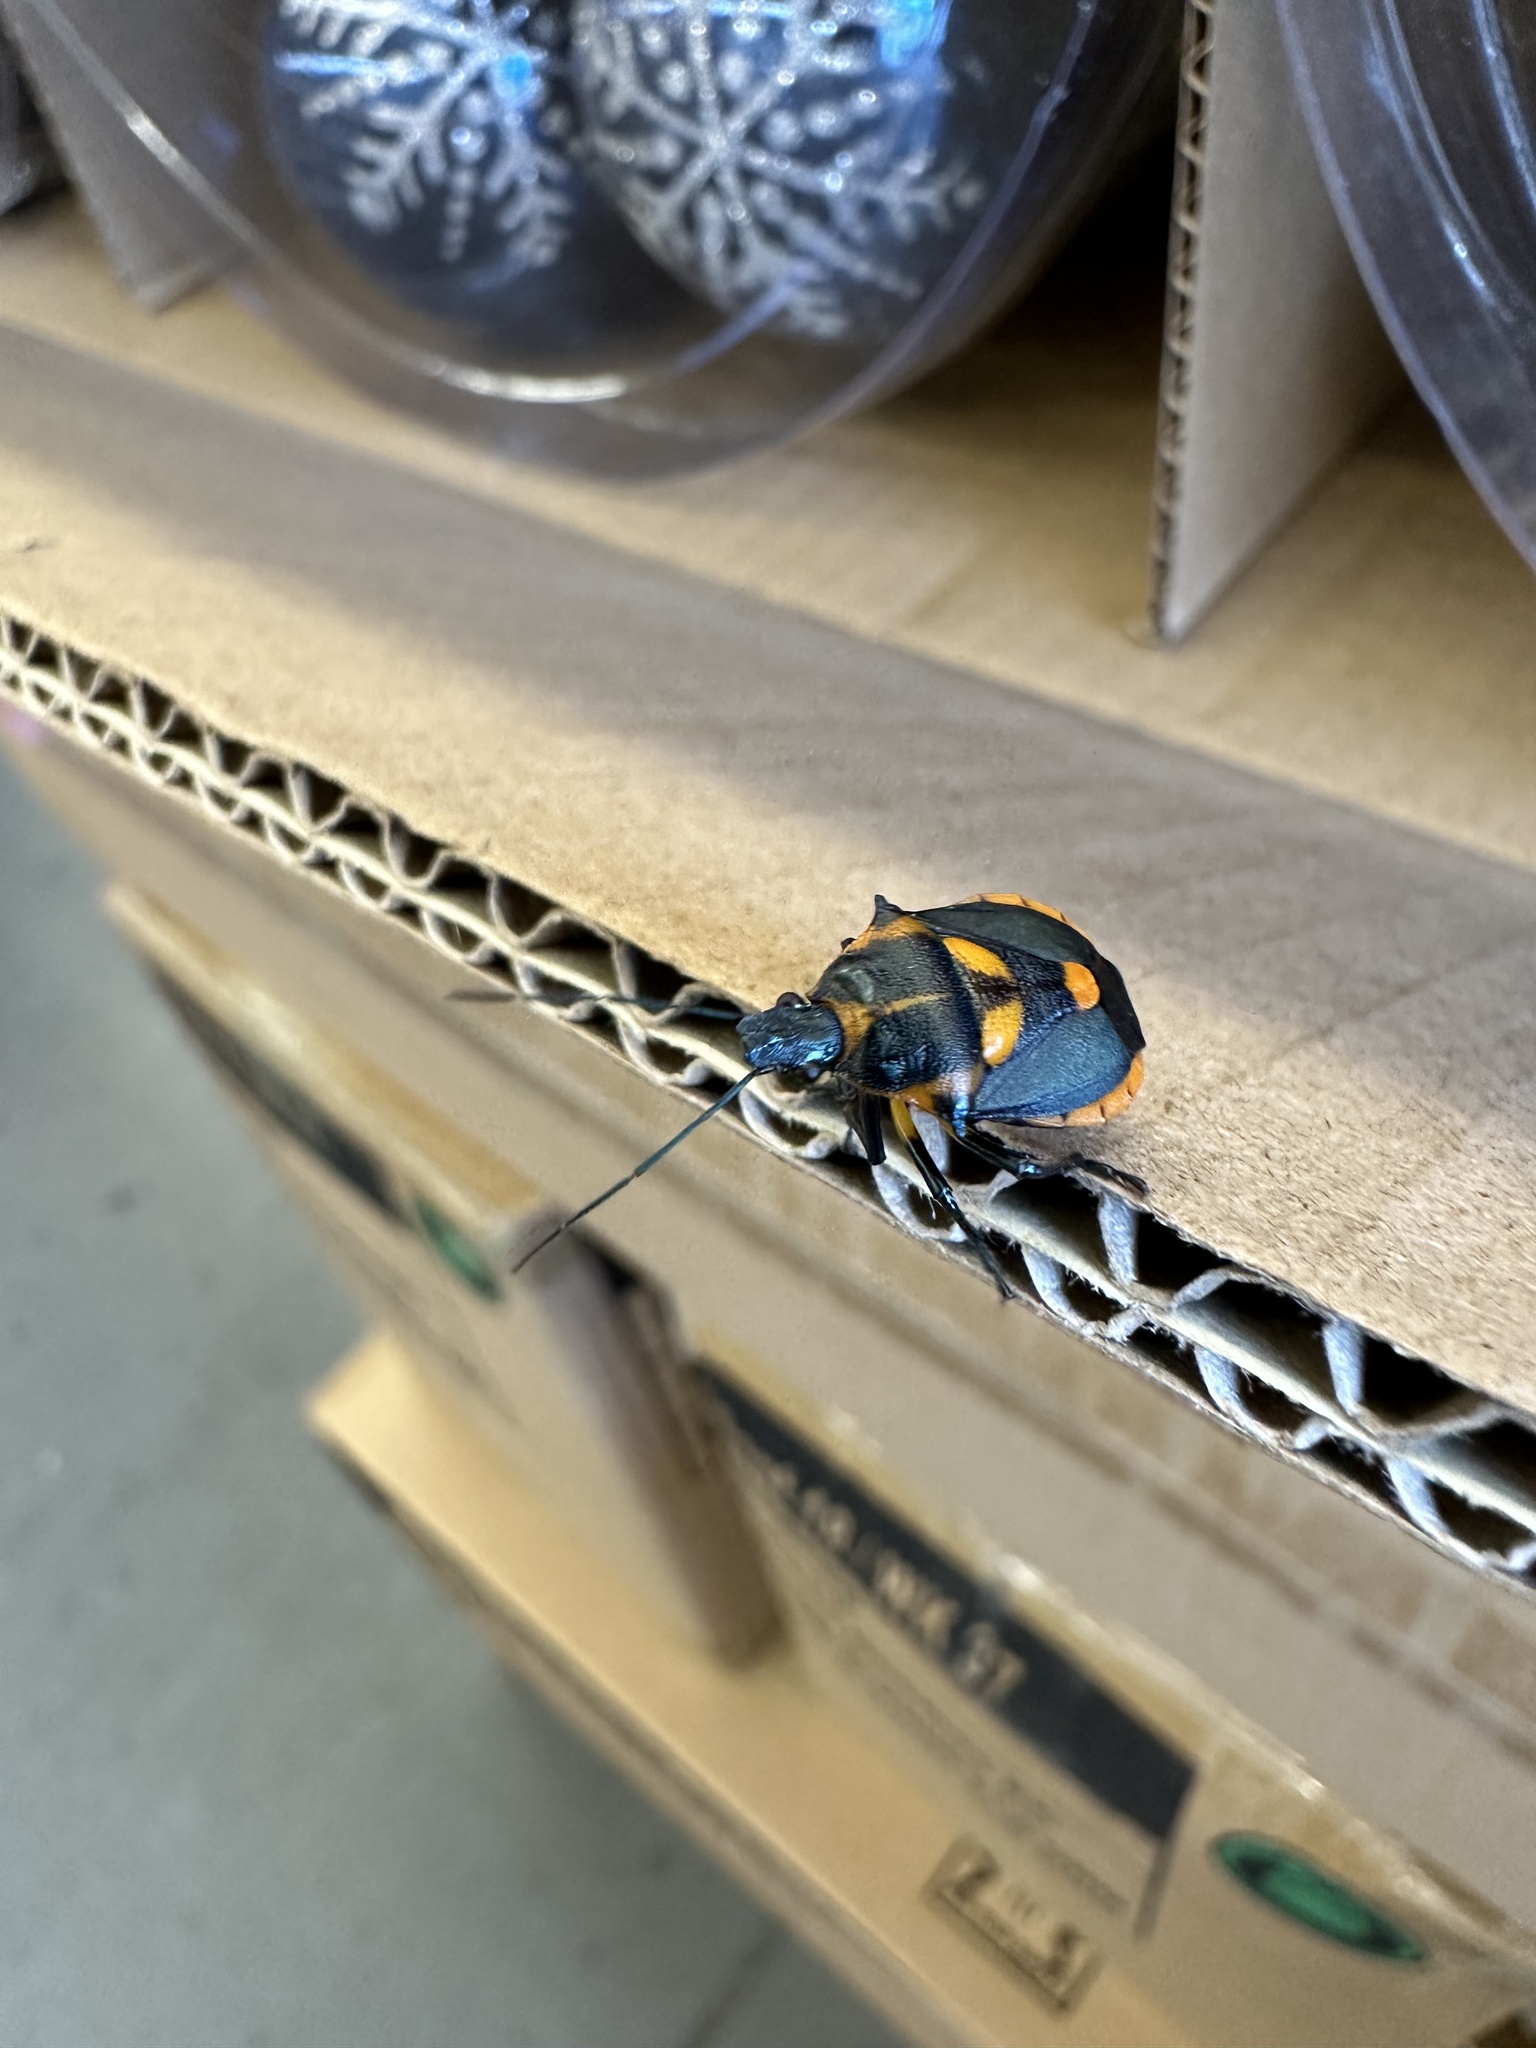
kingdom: Animalia
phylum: Arthropoda
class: Insecta
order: Hemiptera
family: Pentatomidae
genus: Euthyrhynchus
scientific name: Euthyrhynchus floridanus
